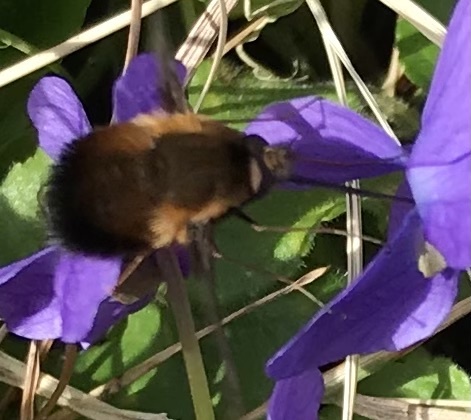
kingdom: Animalia
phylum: Arthropoda
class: Insecta
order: Diptera
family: Bombyliidae
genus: Bombylius
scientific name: Bombylius discolor
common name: Dotted bee-fly
